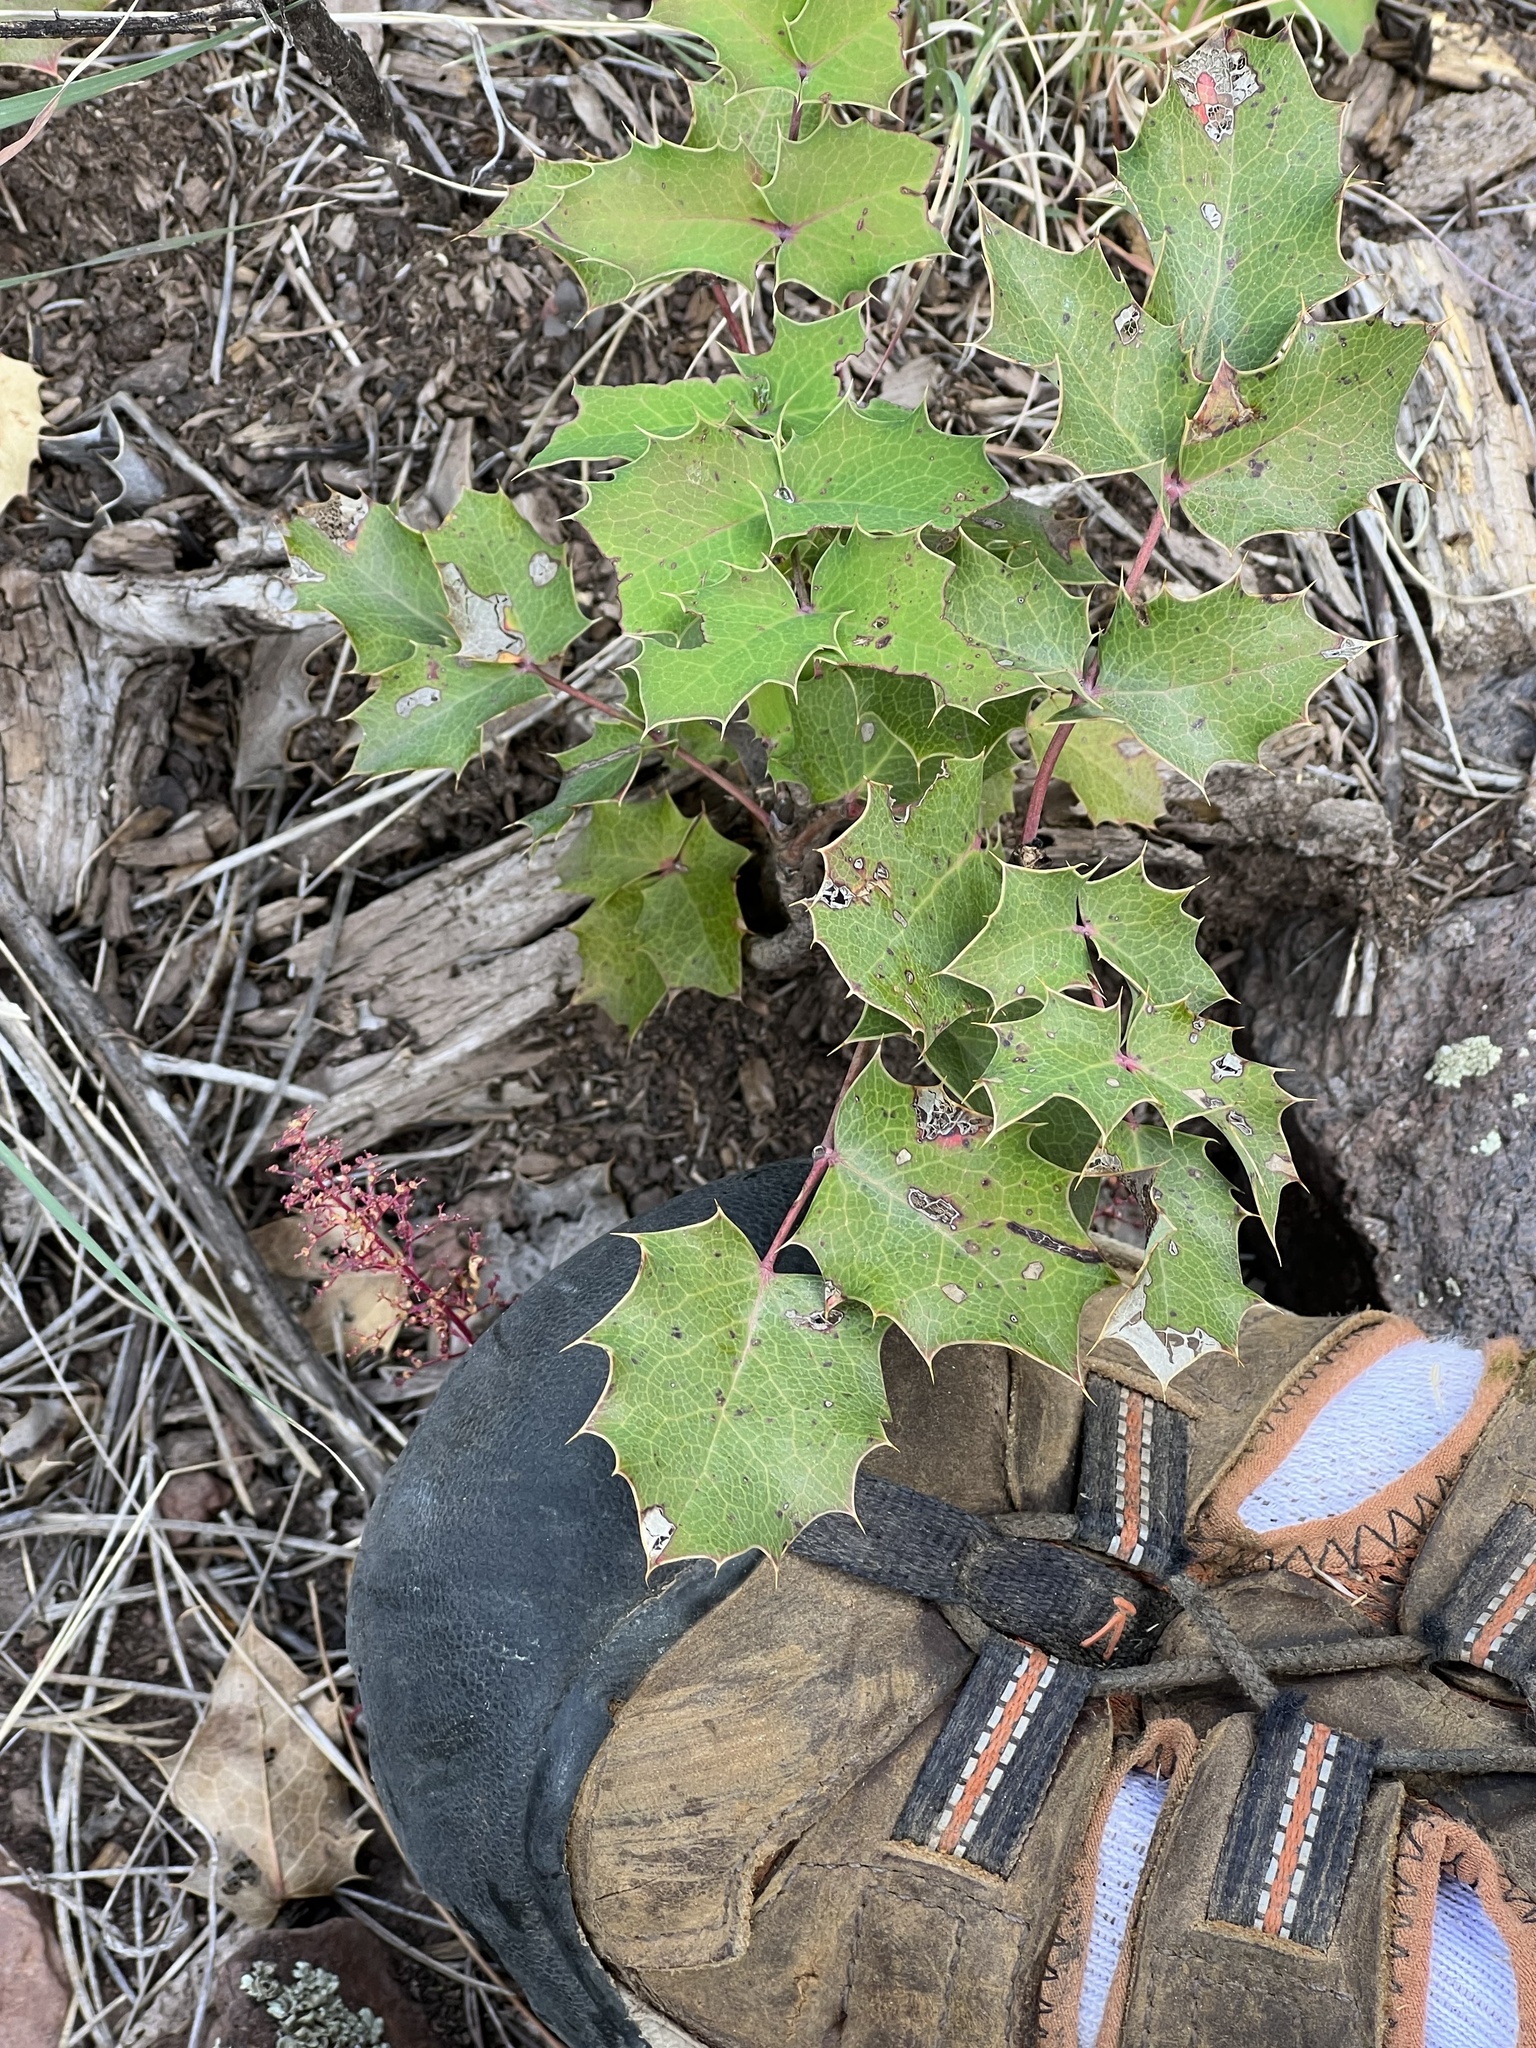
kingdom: Plantae
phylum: Tracheophyta
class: Magnoliopsida
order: Ranunculales
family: Berberidaceae
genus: Mahonia
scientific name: Mahonia repens
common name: Creeping oregon-grape
